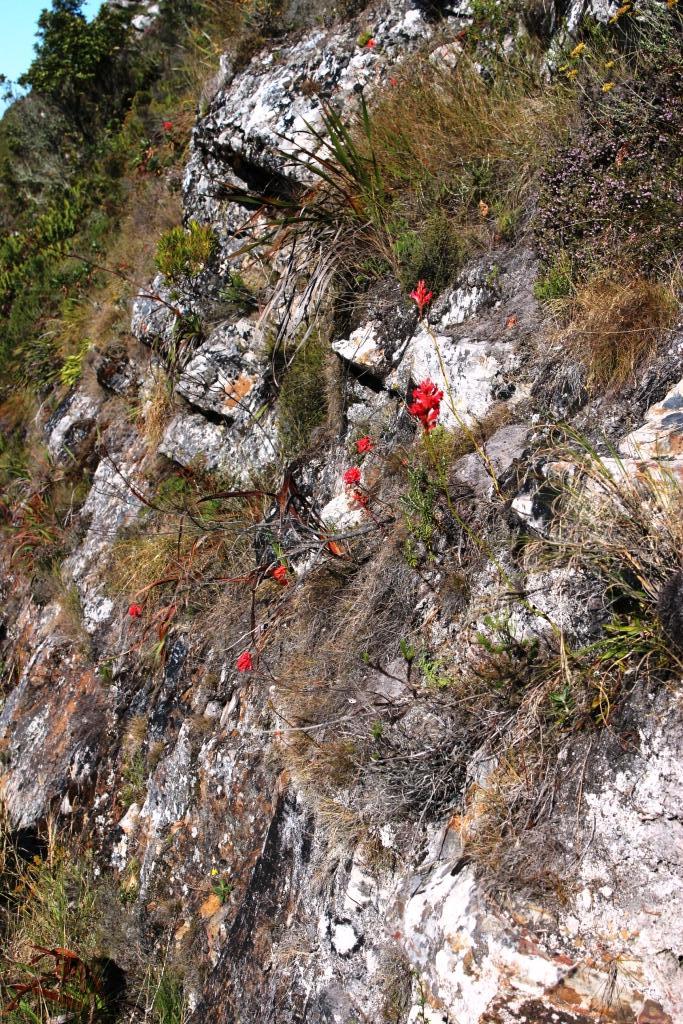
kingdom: Plantae
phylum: Tracheophyta
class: Liliopsida
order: Asparagales
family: Iridaceae
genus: Tritoniopsis
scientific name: Tritoniopsis triticea
